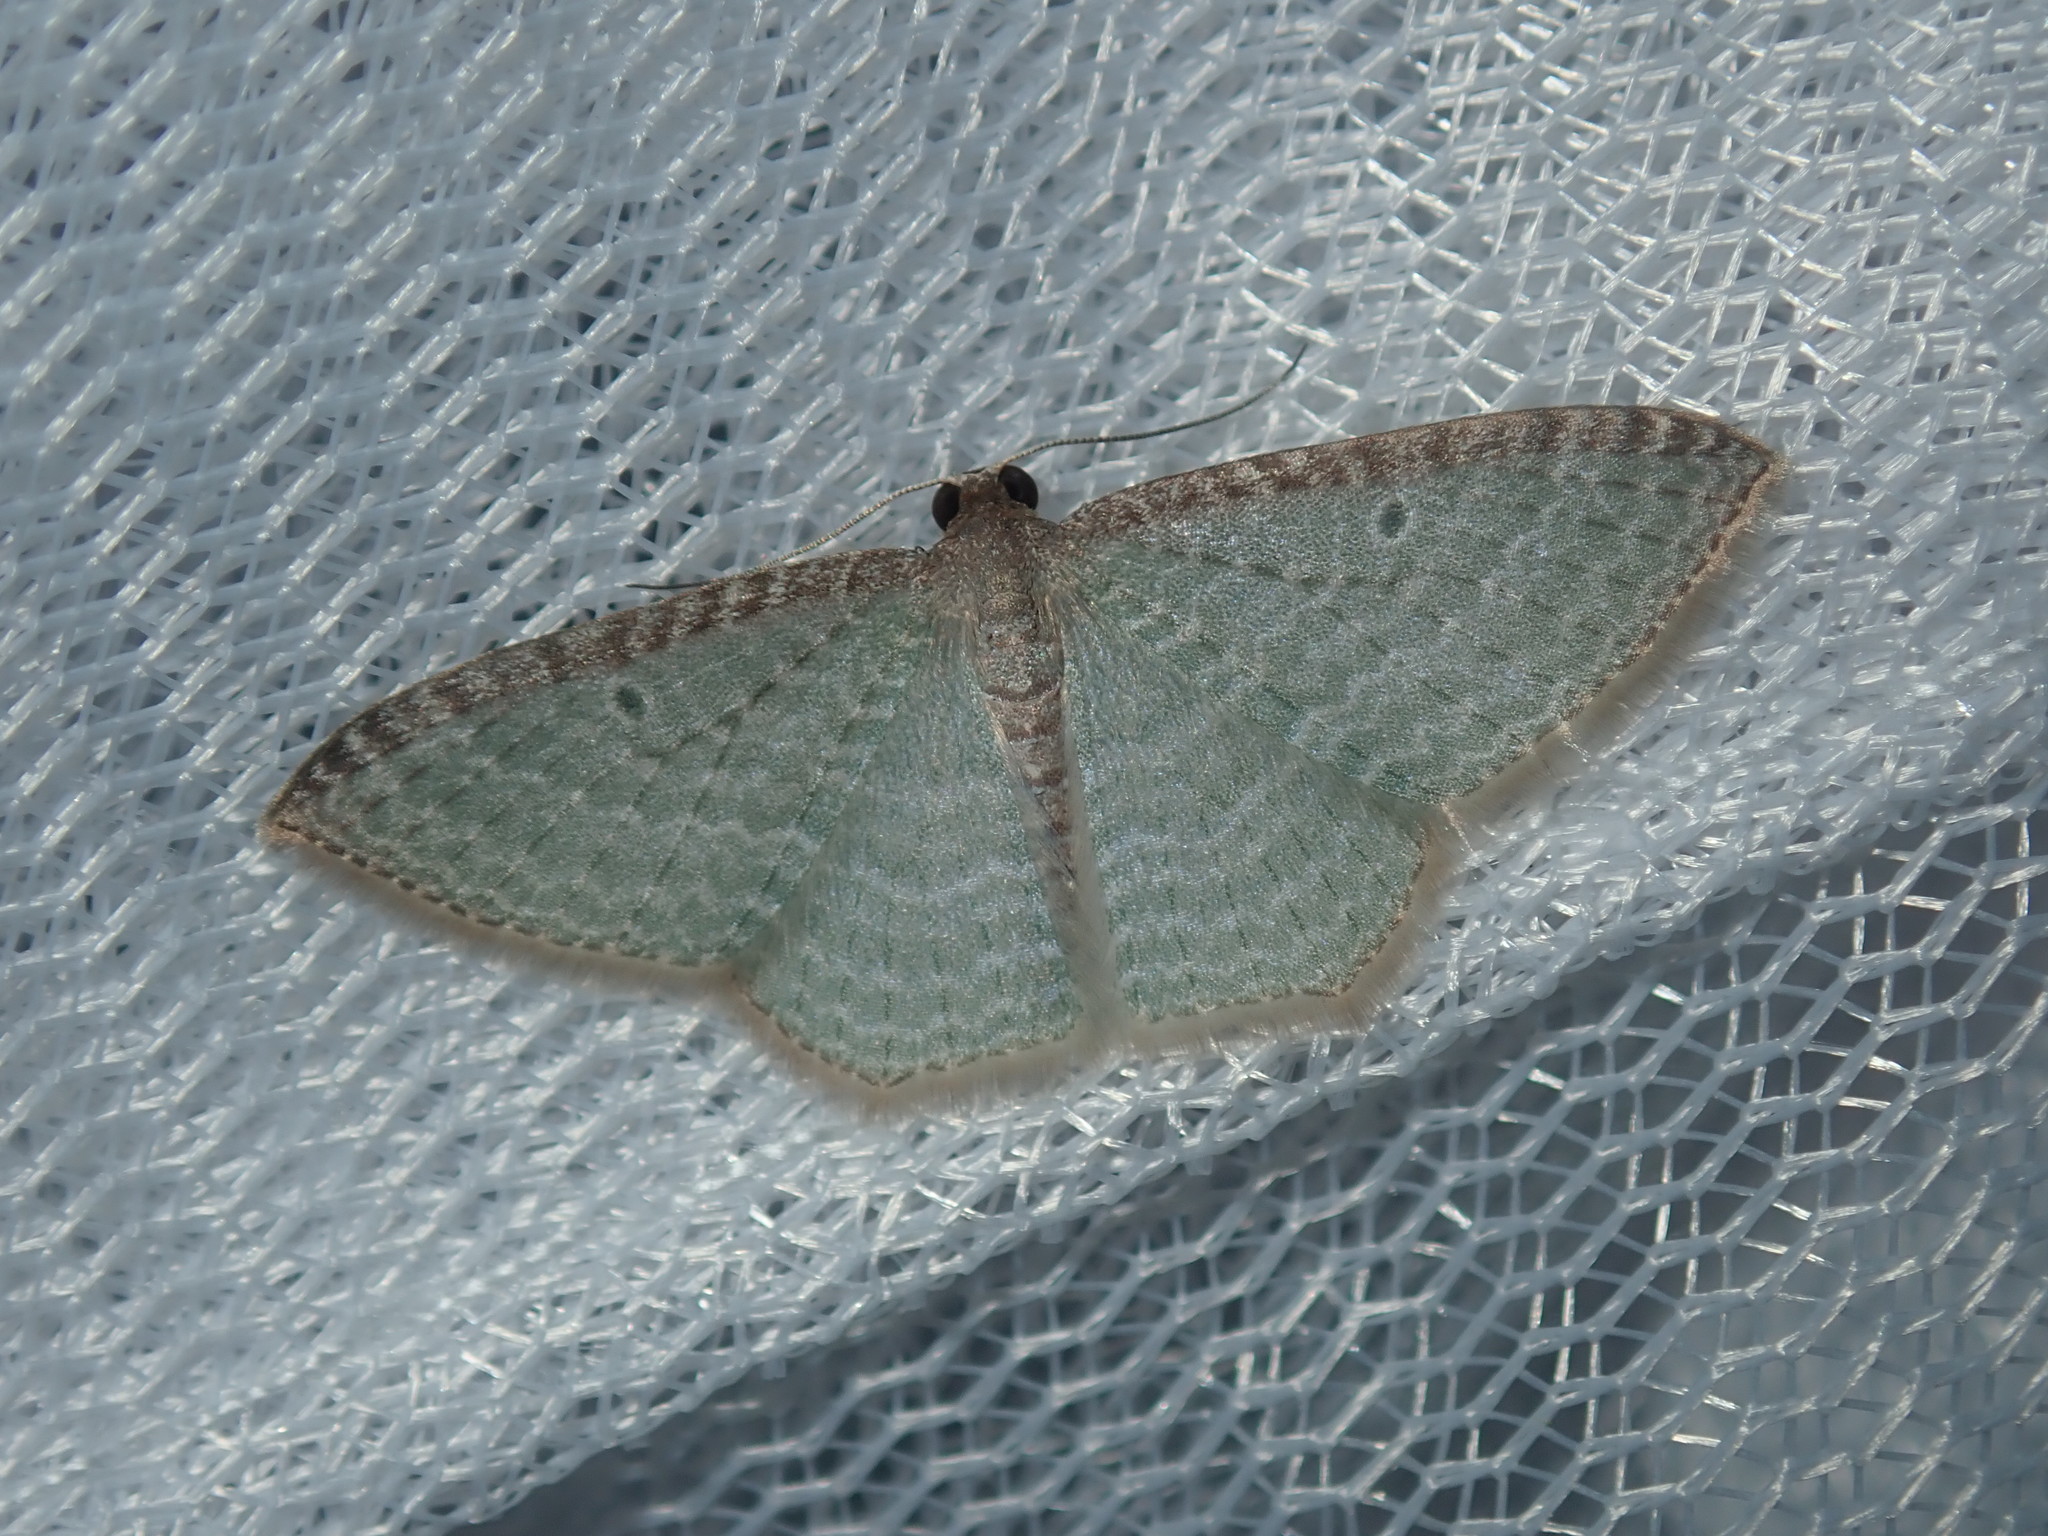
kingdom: Animalia
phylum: Arthropoda
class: Insecta
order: Lepidoptera
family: Geometridae
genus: Poecilasthena
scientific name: Poecilasthena pulchraria
